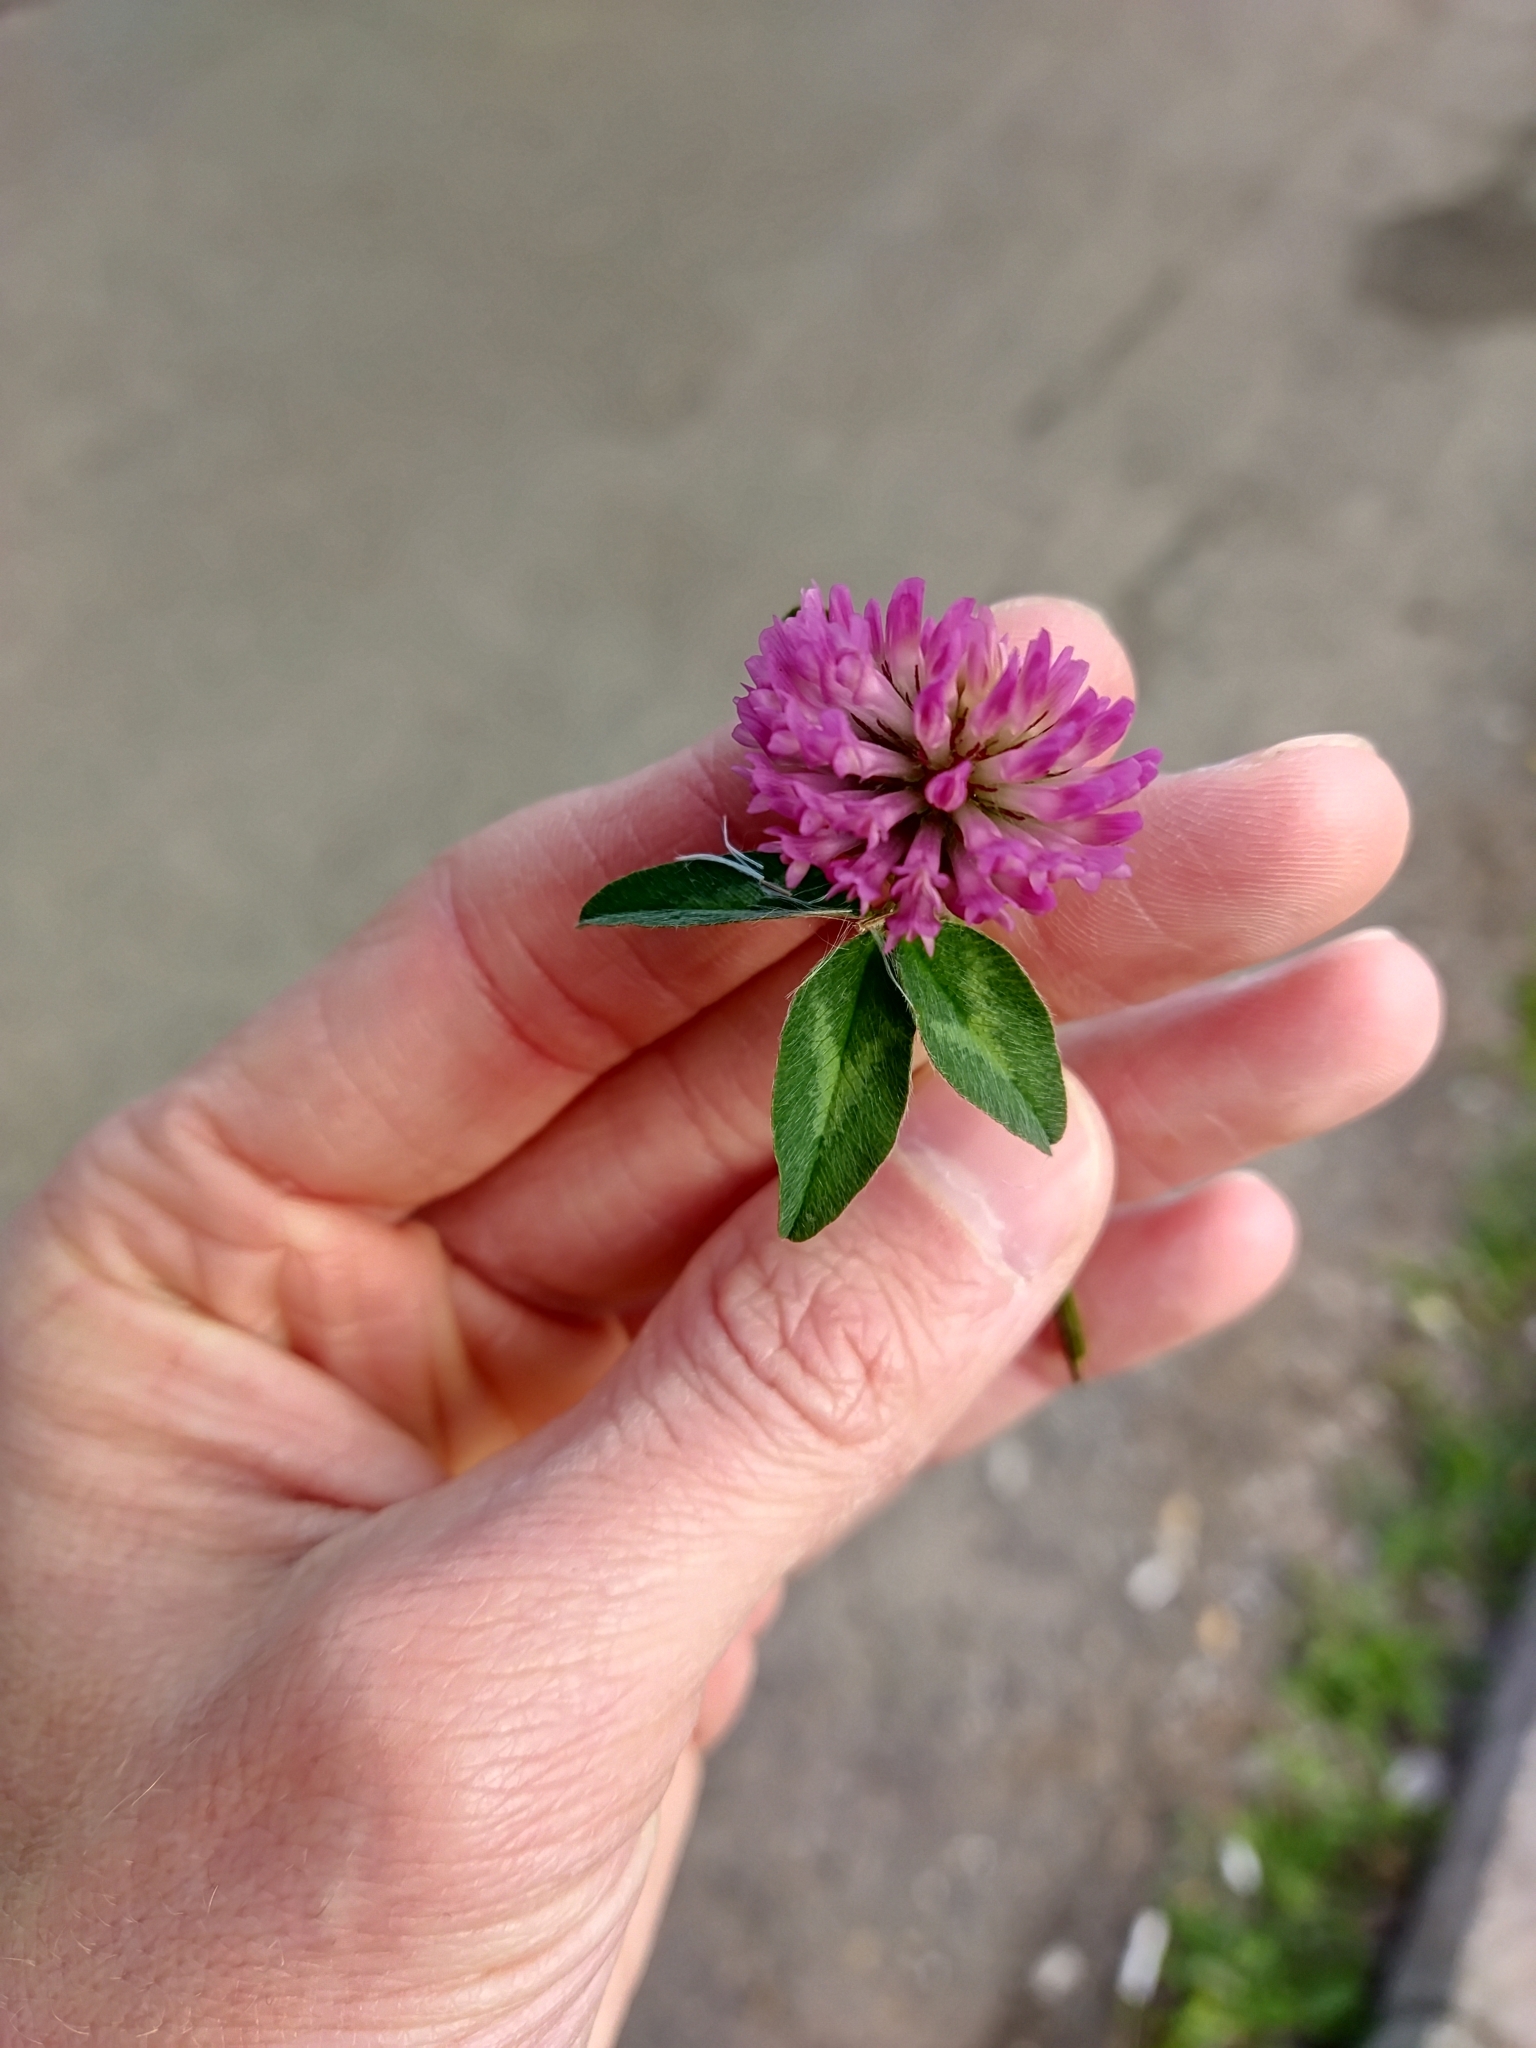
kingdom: Plantae
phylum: Tracheophyta
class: Magnoliopsida
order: Fabales
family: Fabaceae
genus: Trifolium
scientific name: Trifolium pratense
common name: Red clover
